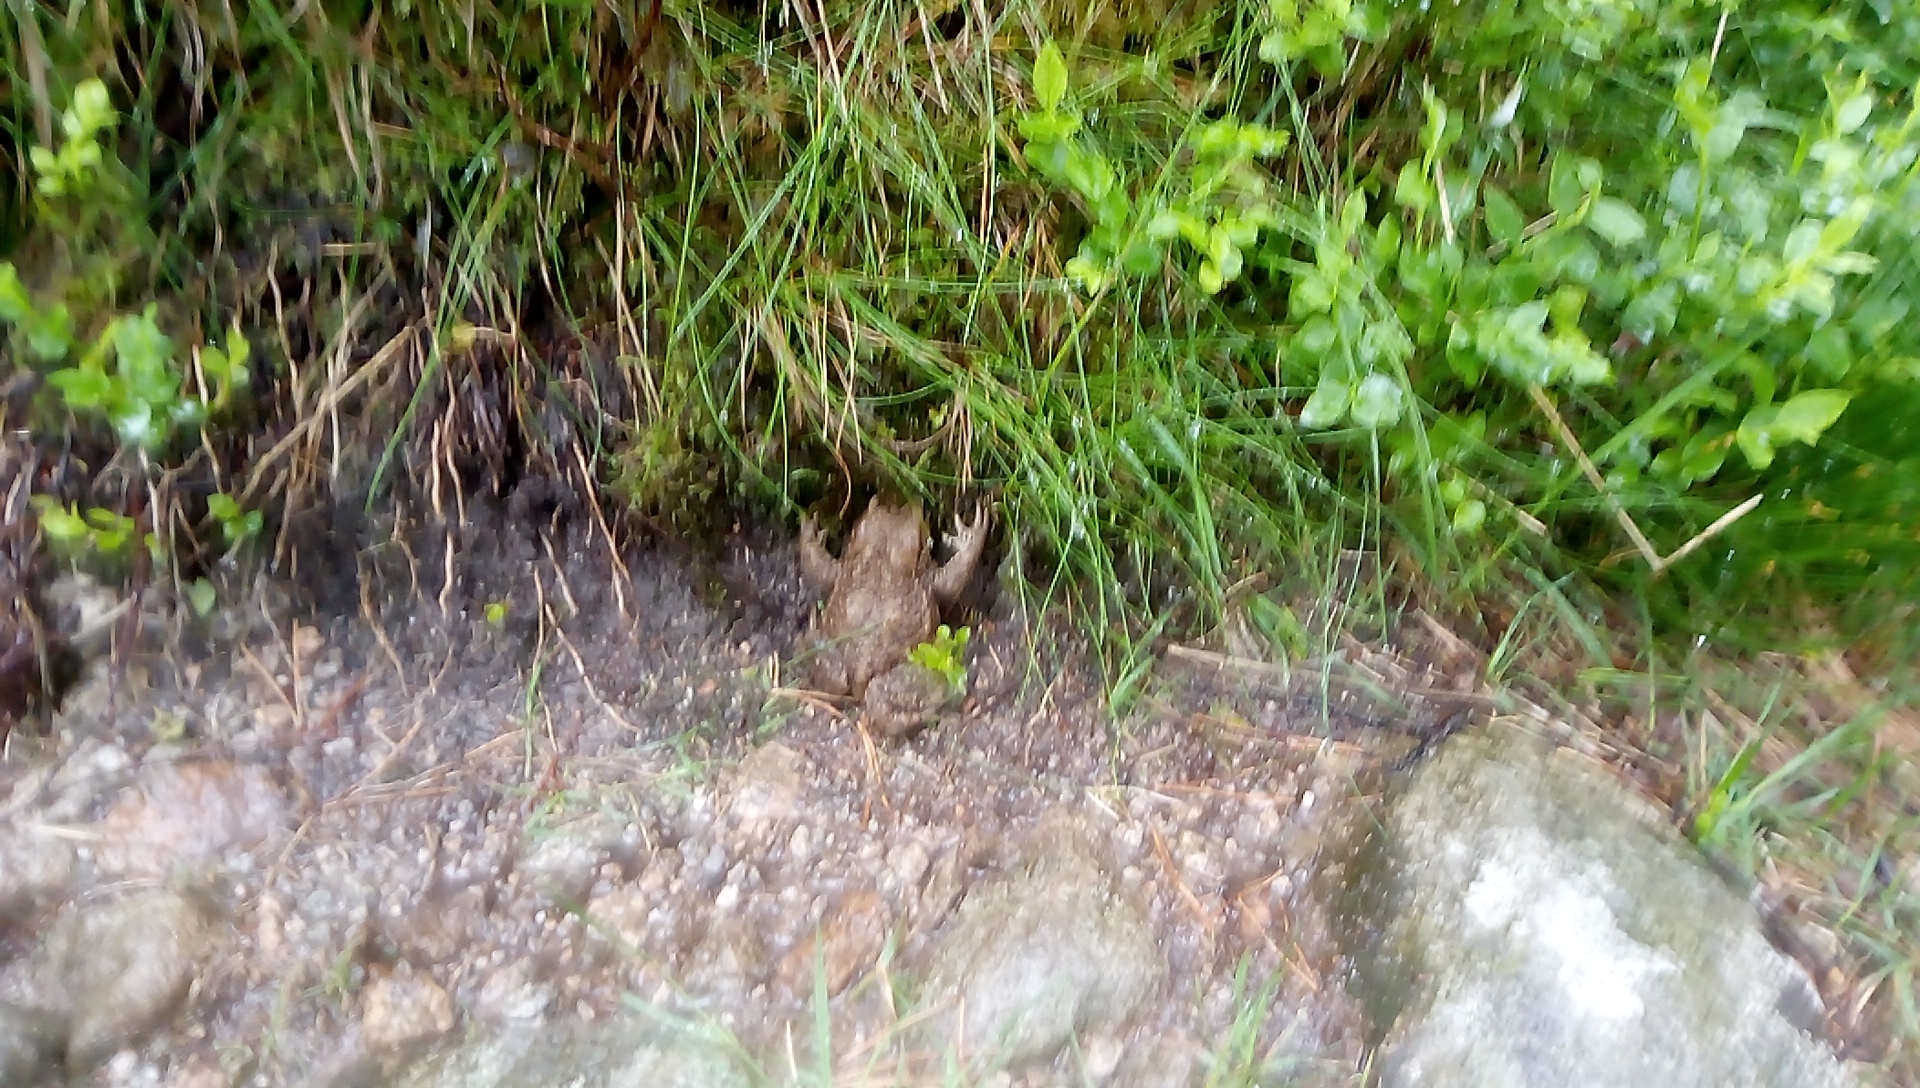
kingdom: Animalia
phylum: Chordata
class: Amphibia
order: Anura
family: Bufonidae
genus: Bufo
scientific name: Bufo bufo
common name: Common toad
